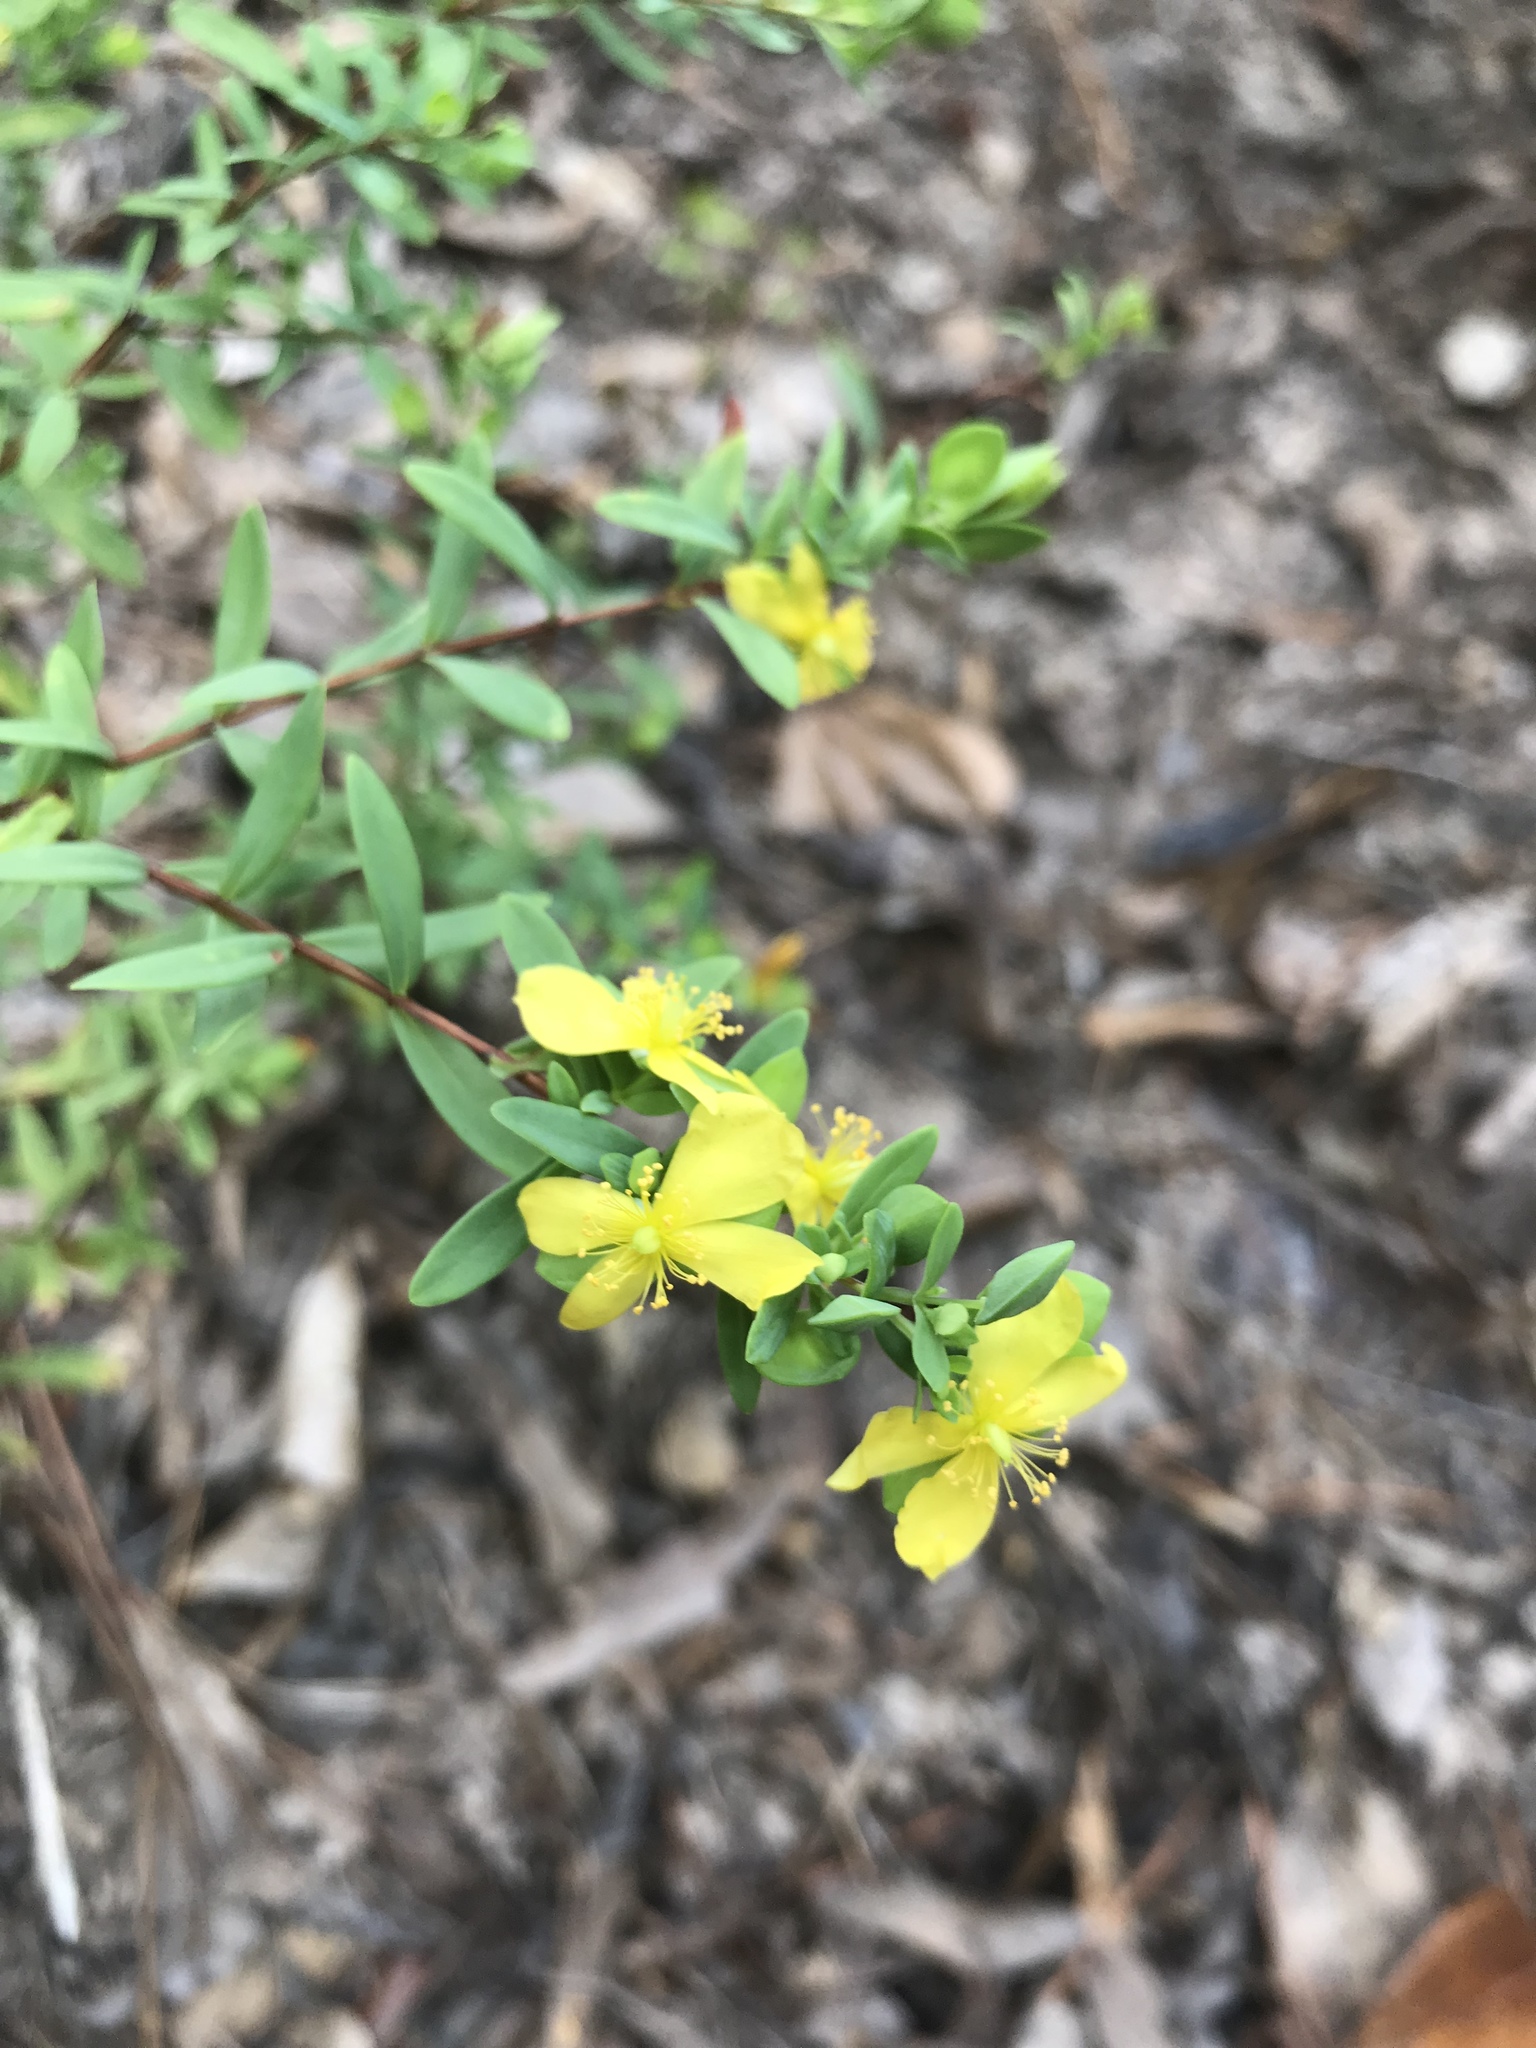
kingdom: Plantae
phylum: Tracheophyta
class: Magnoliopsida
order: Malpighiales
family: Hypericaceae
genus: Hypericum
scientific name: Hypericum hypericoides
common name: St. andrew's cross
